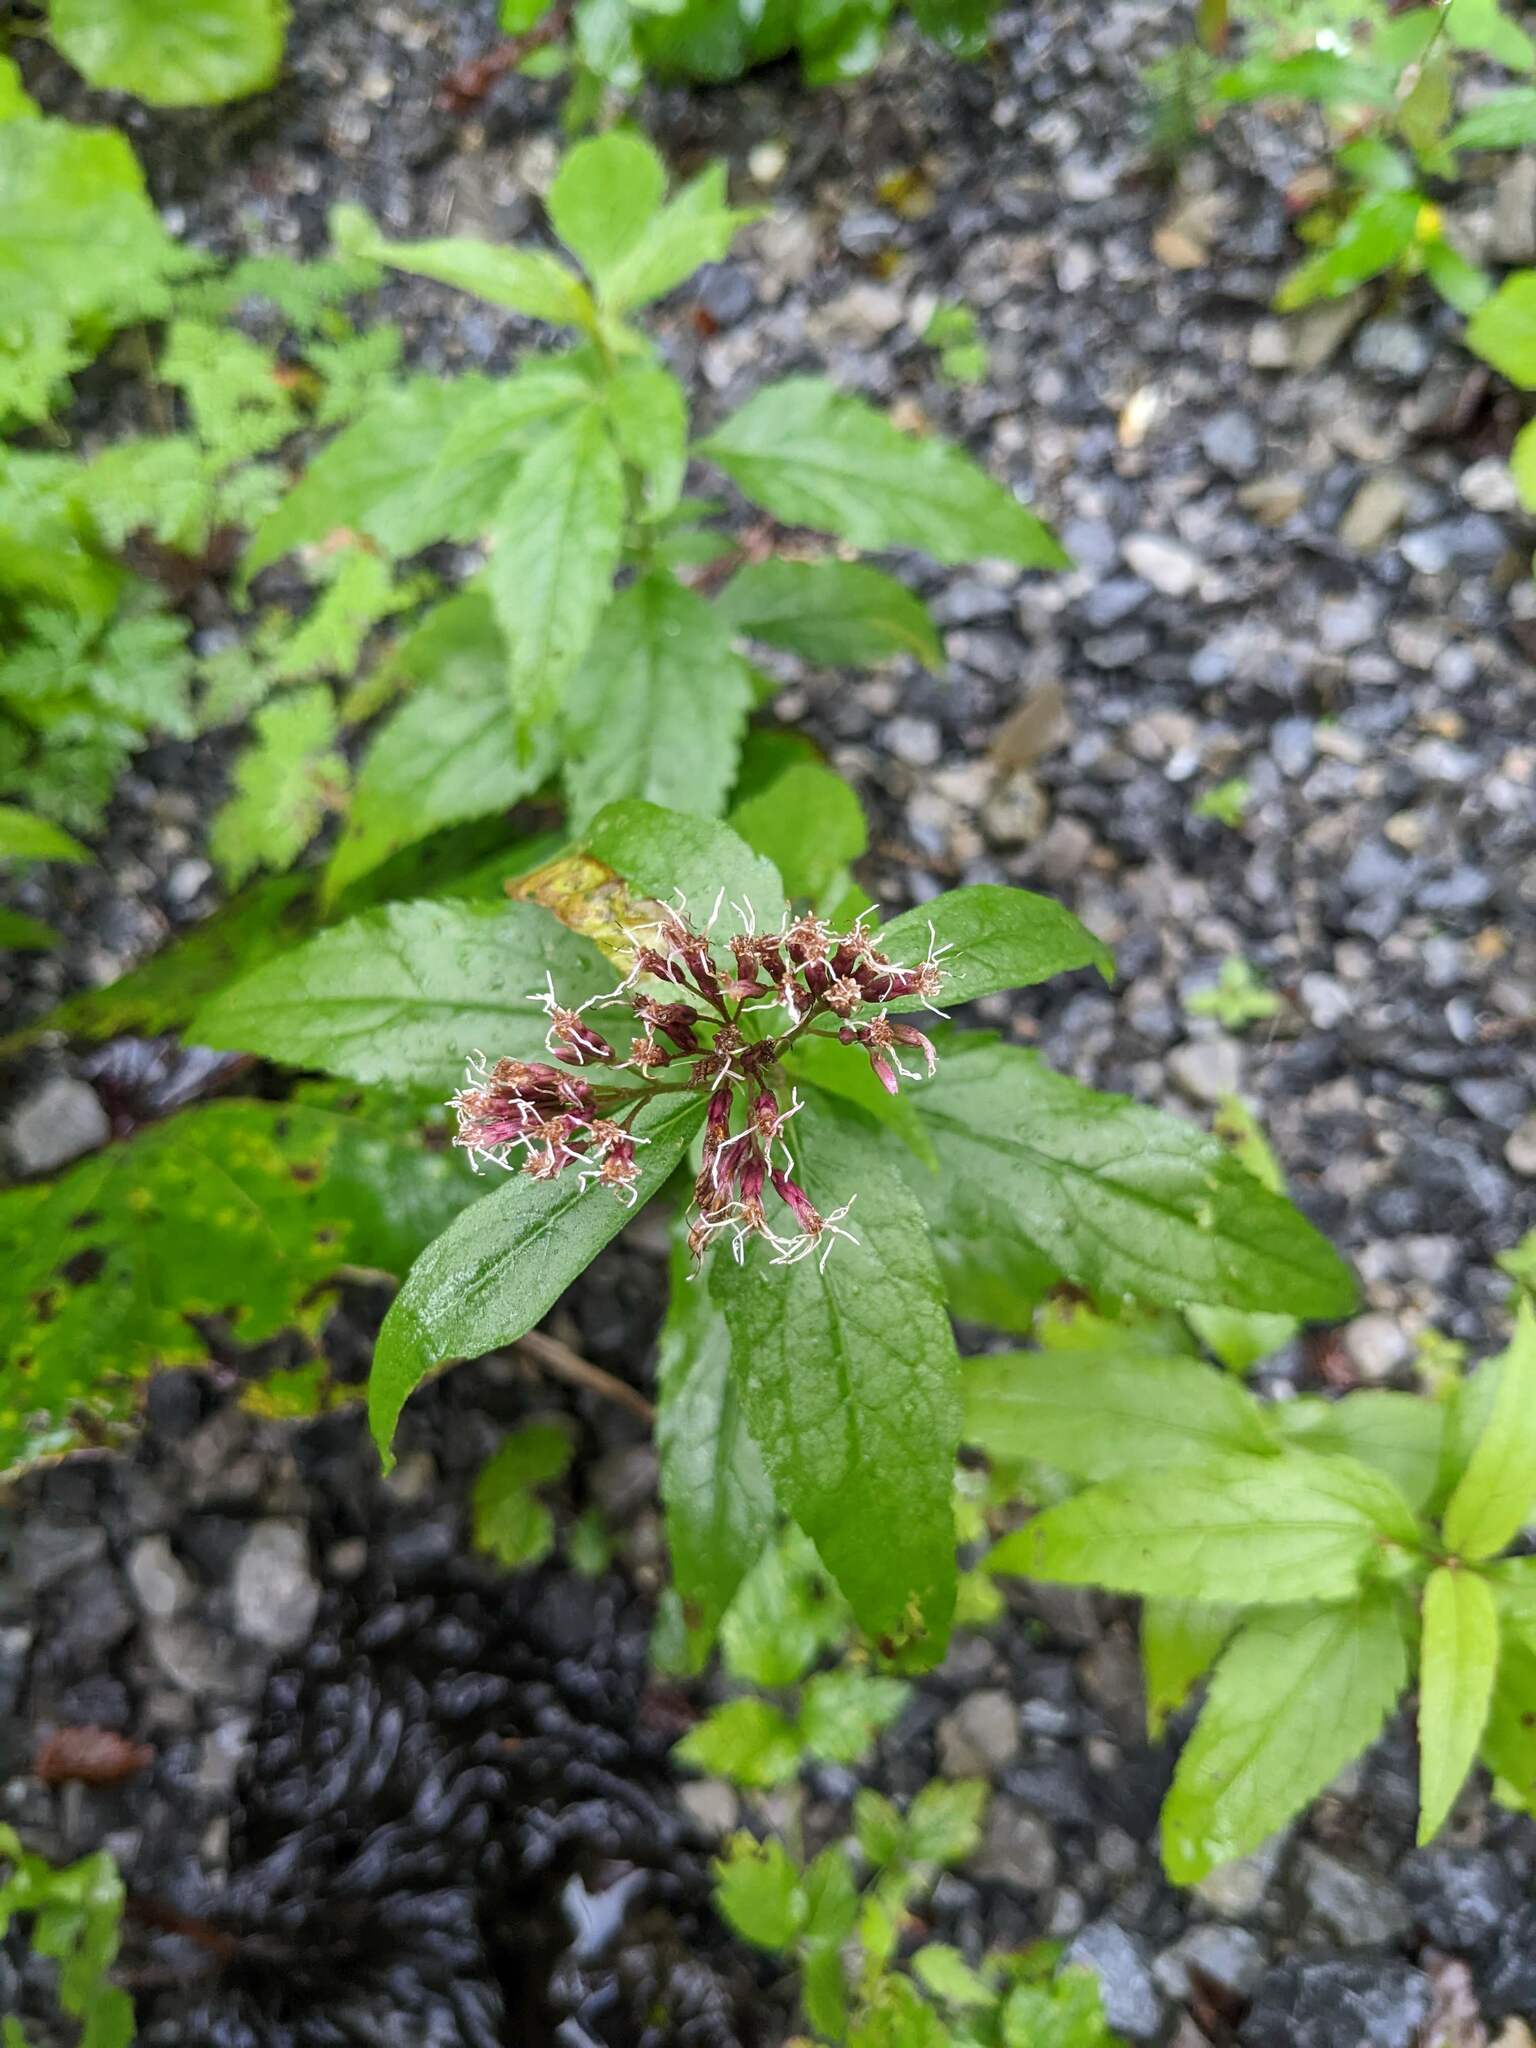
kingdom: Plantae
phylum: Tracheophyta
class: Magnoliopsida
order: Asterales
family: Asteraceae
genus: Eupatorium
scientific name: Eupatorium cannabinum
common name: Hemp-agrimony
